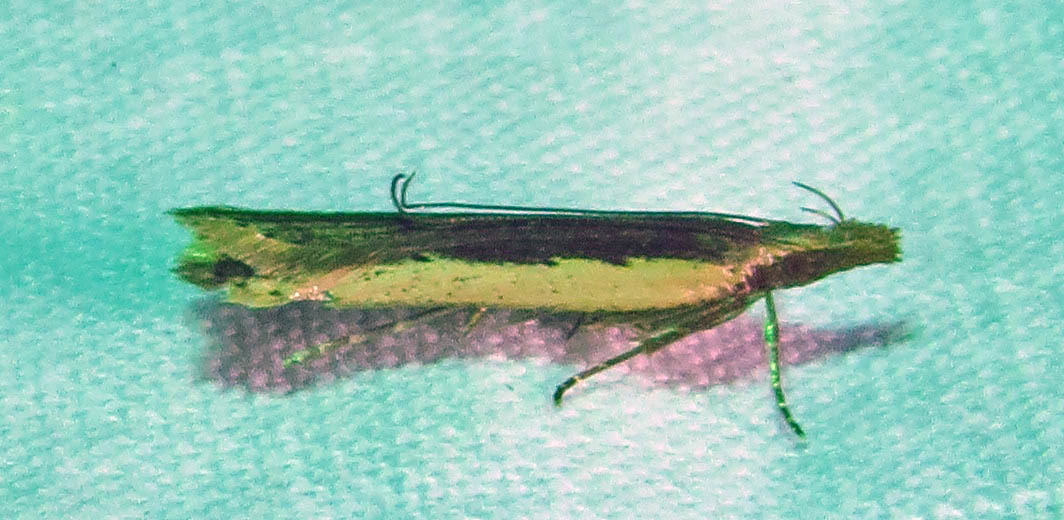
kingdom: Animalia
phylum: Arthropoda
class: Insecta
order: Lepidoptera
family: Gelechiidae
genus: Dichomeris
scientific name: Dichomeris ligulella
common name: Moth
